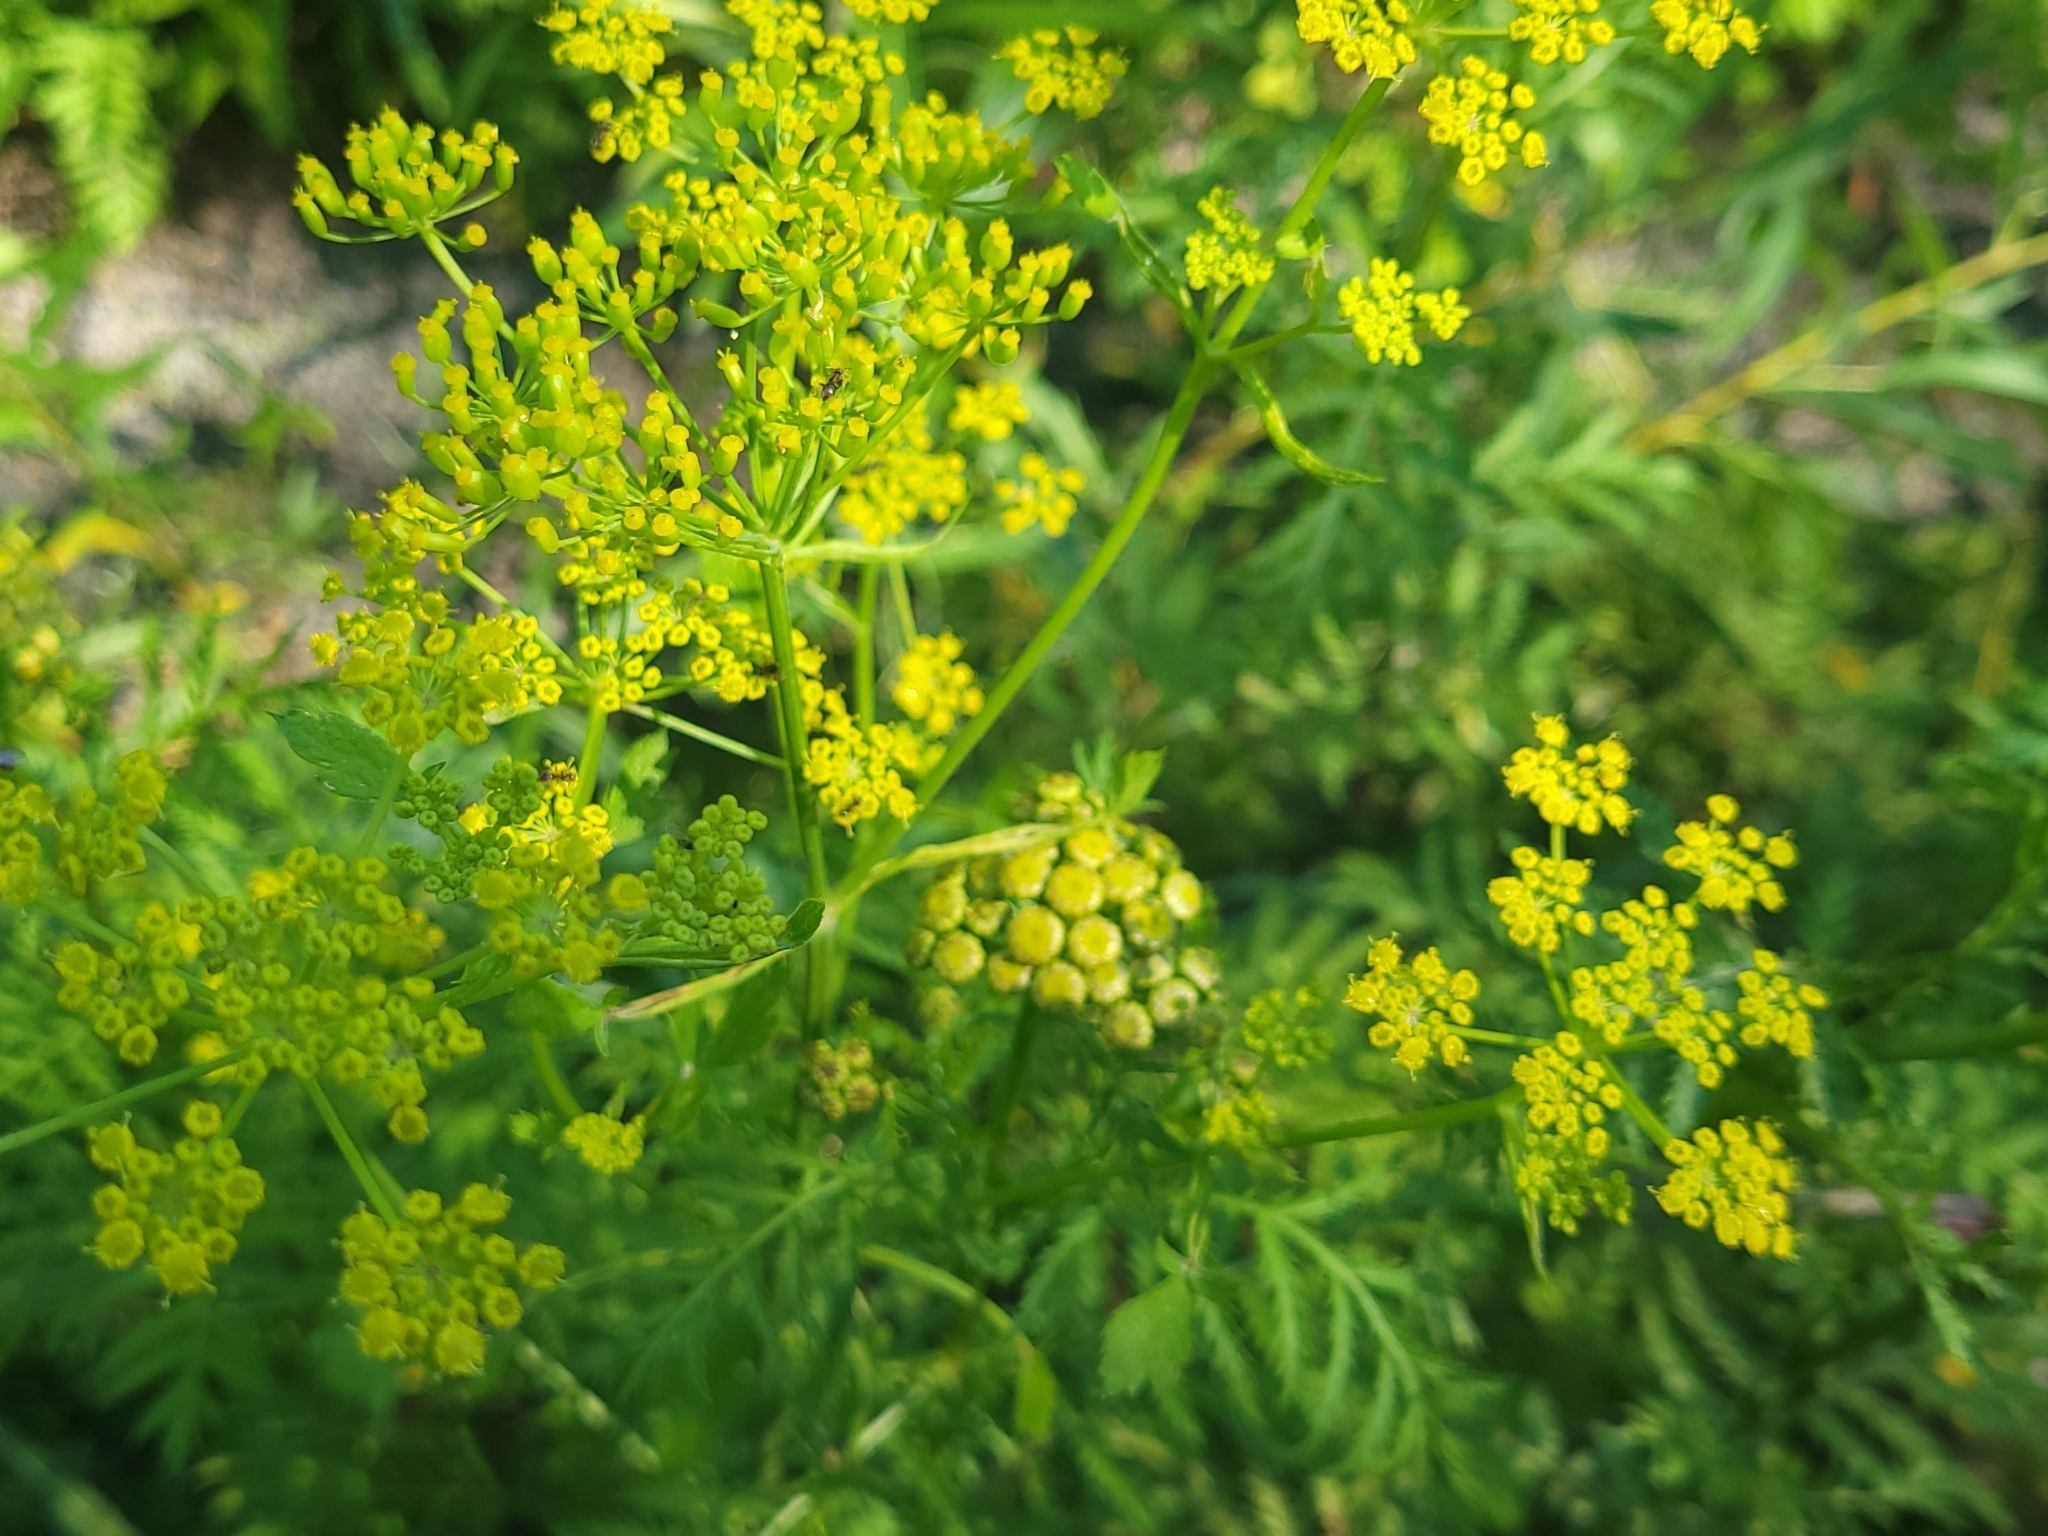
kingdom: Plantae
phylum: Tracheophyta
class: Magnoliopsida
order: Apiales
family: Apiaceae
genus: Pastinaca
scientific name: Pastinaca sativa
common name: Wild parsnip
